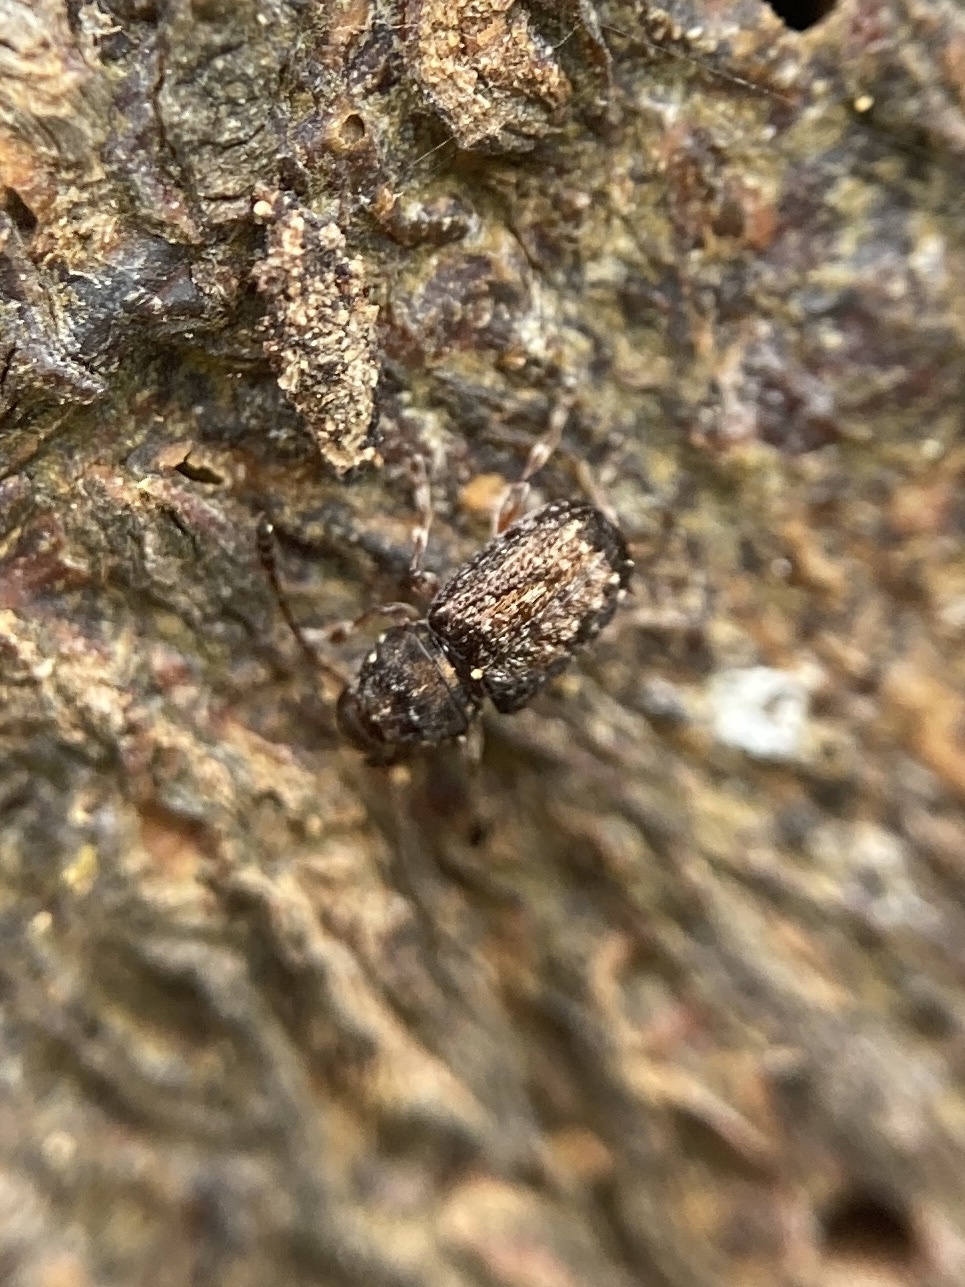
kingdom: Animalia
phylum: Arthropoda
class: Insecta
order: Coleoptera
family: Anthribidae
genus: Sharpius
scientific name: Sharpius
